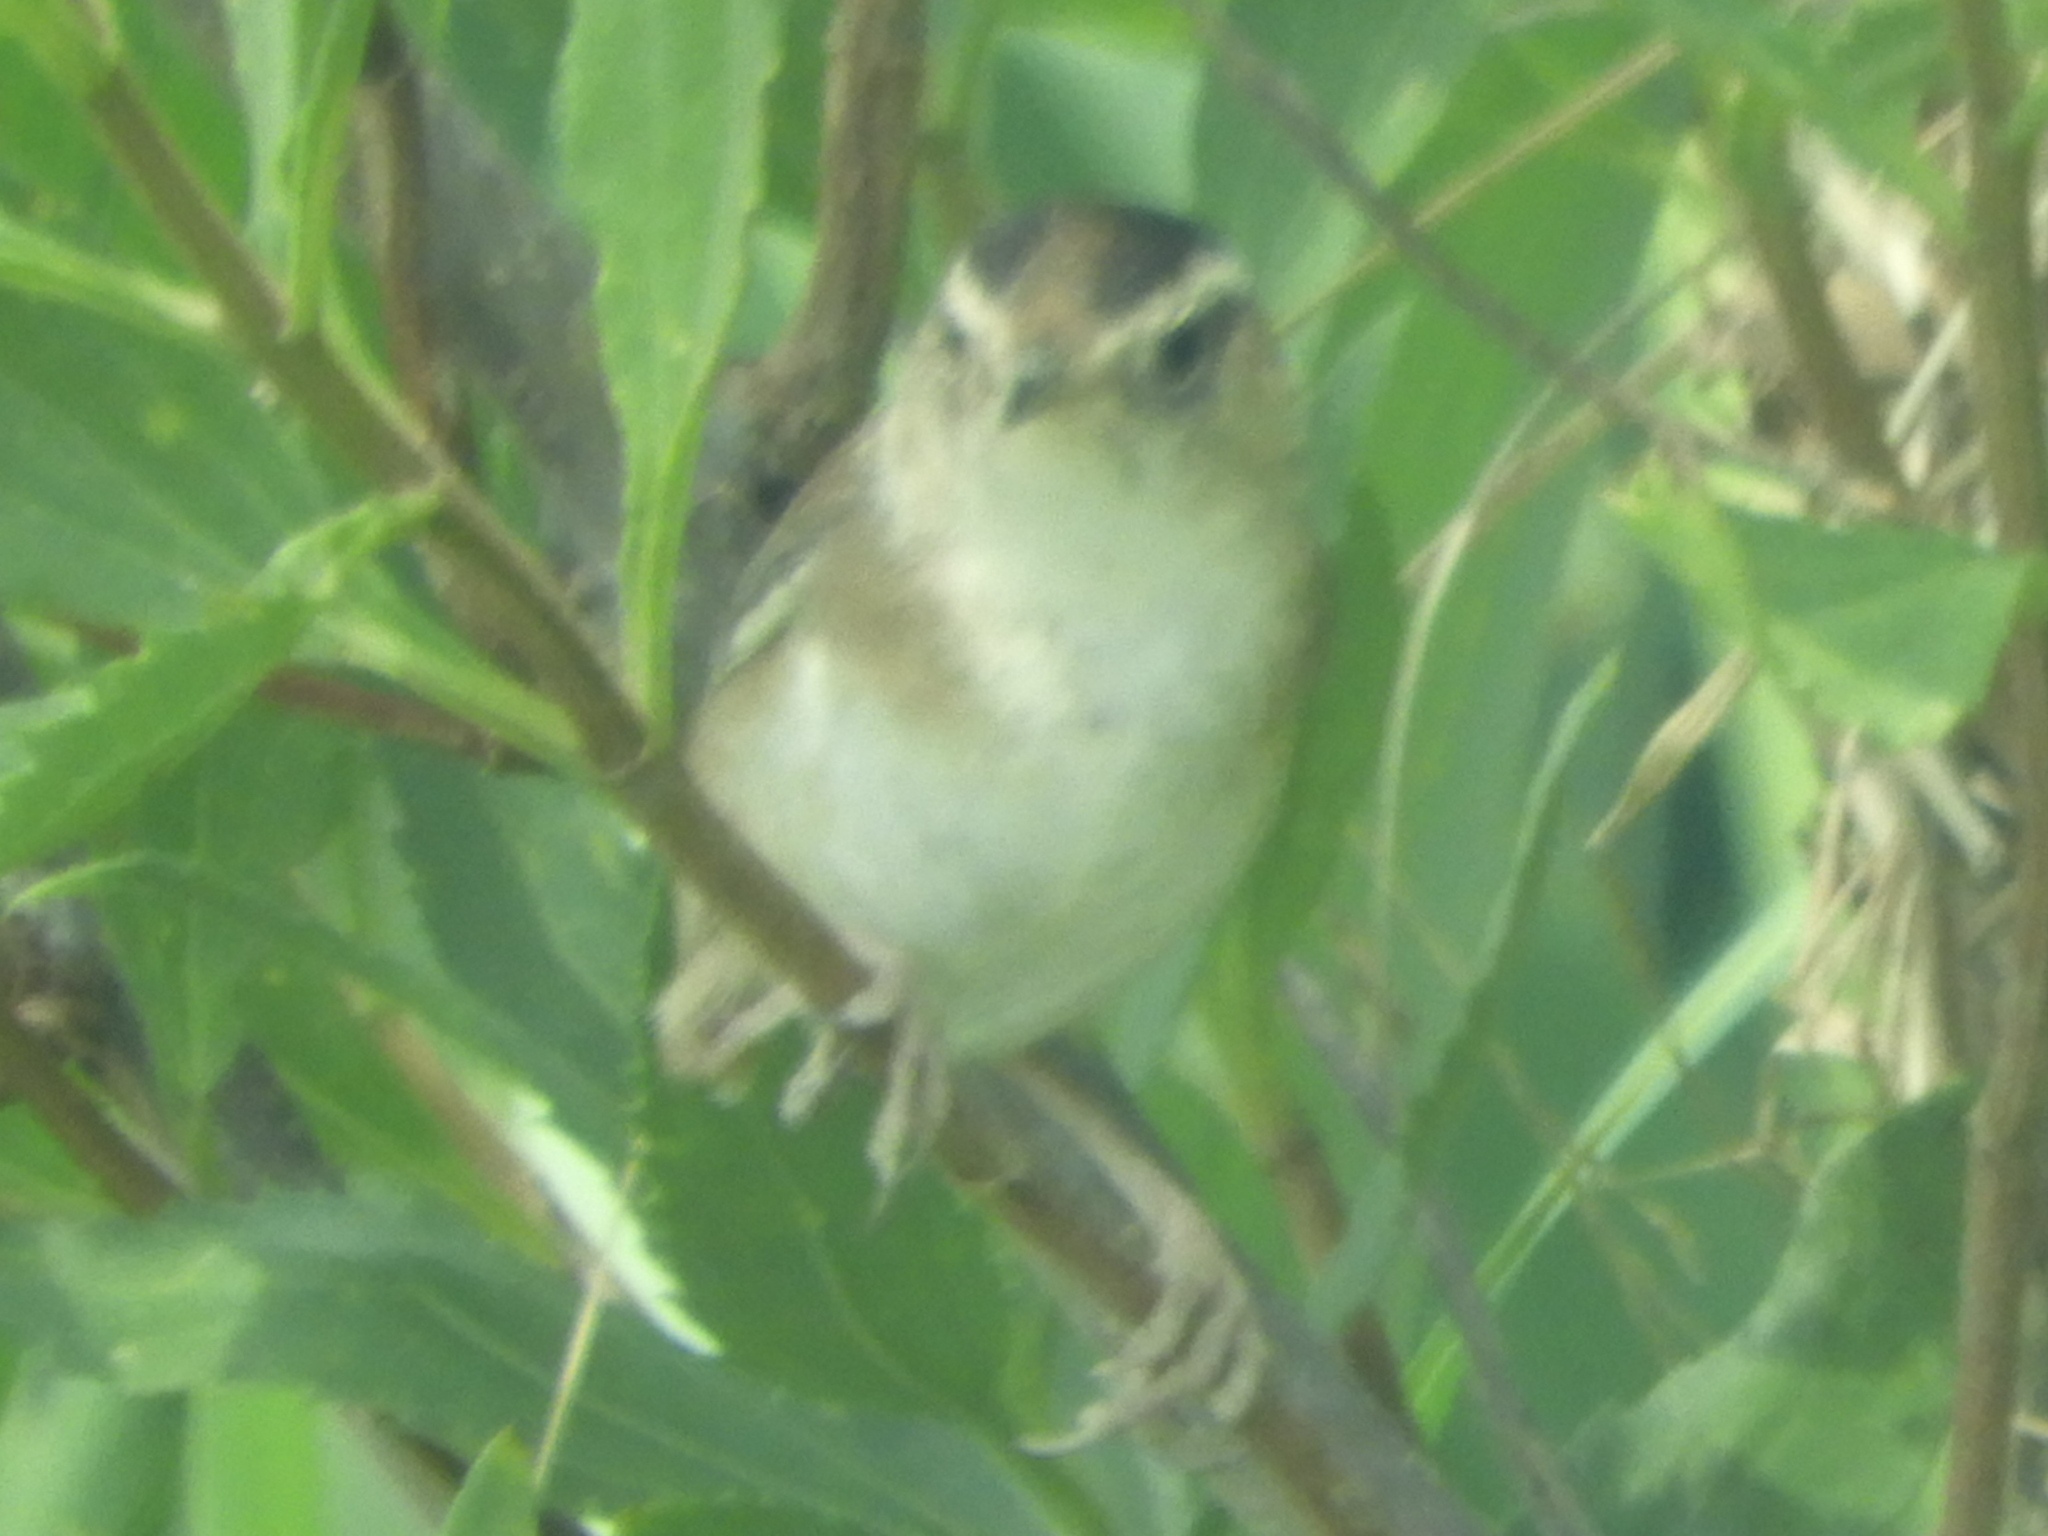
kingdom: Animalia
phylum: Chordata
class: Aves
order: Passeriformes
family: Troglodytidae
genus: Cistothorus
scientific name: Cistothorus palustris
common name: Marsh wren
